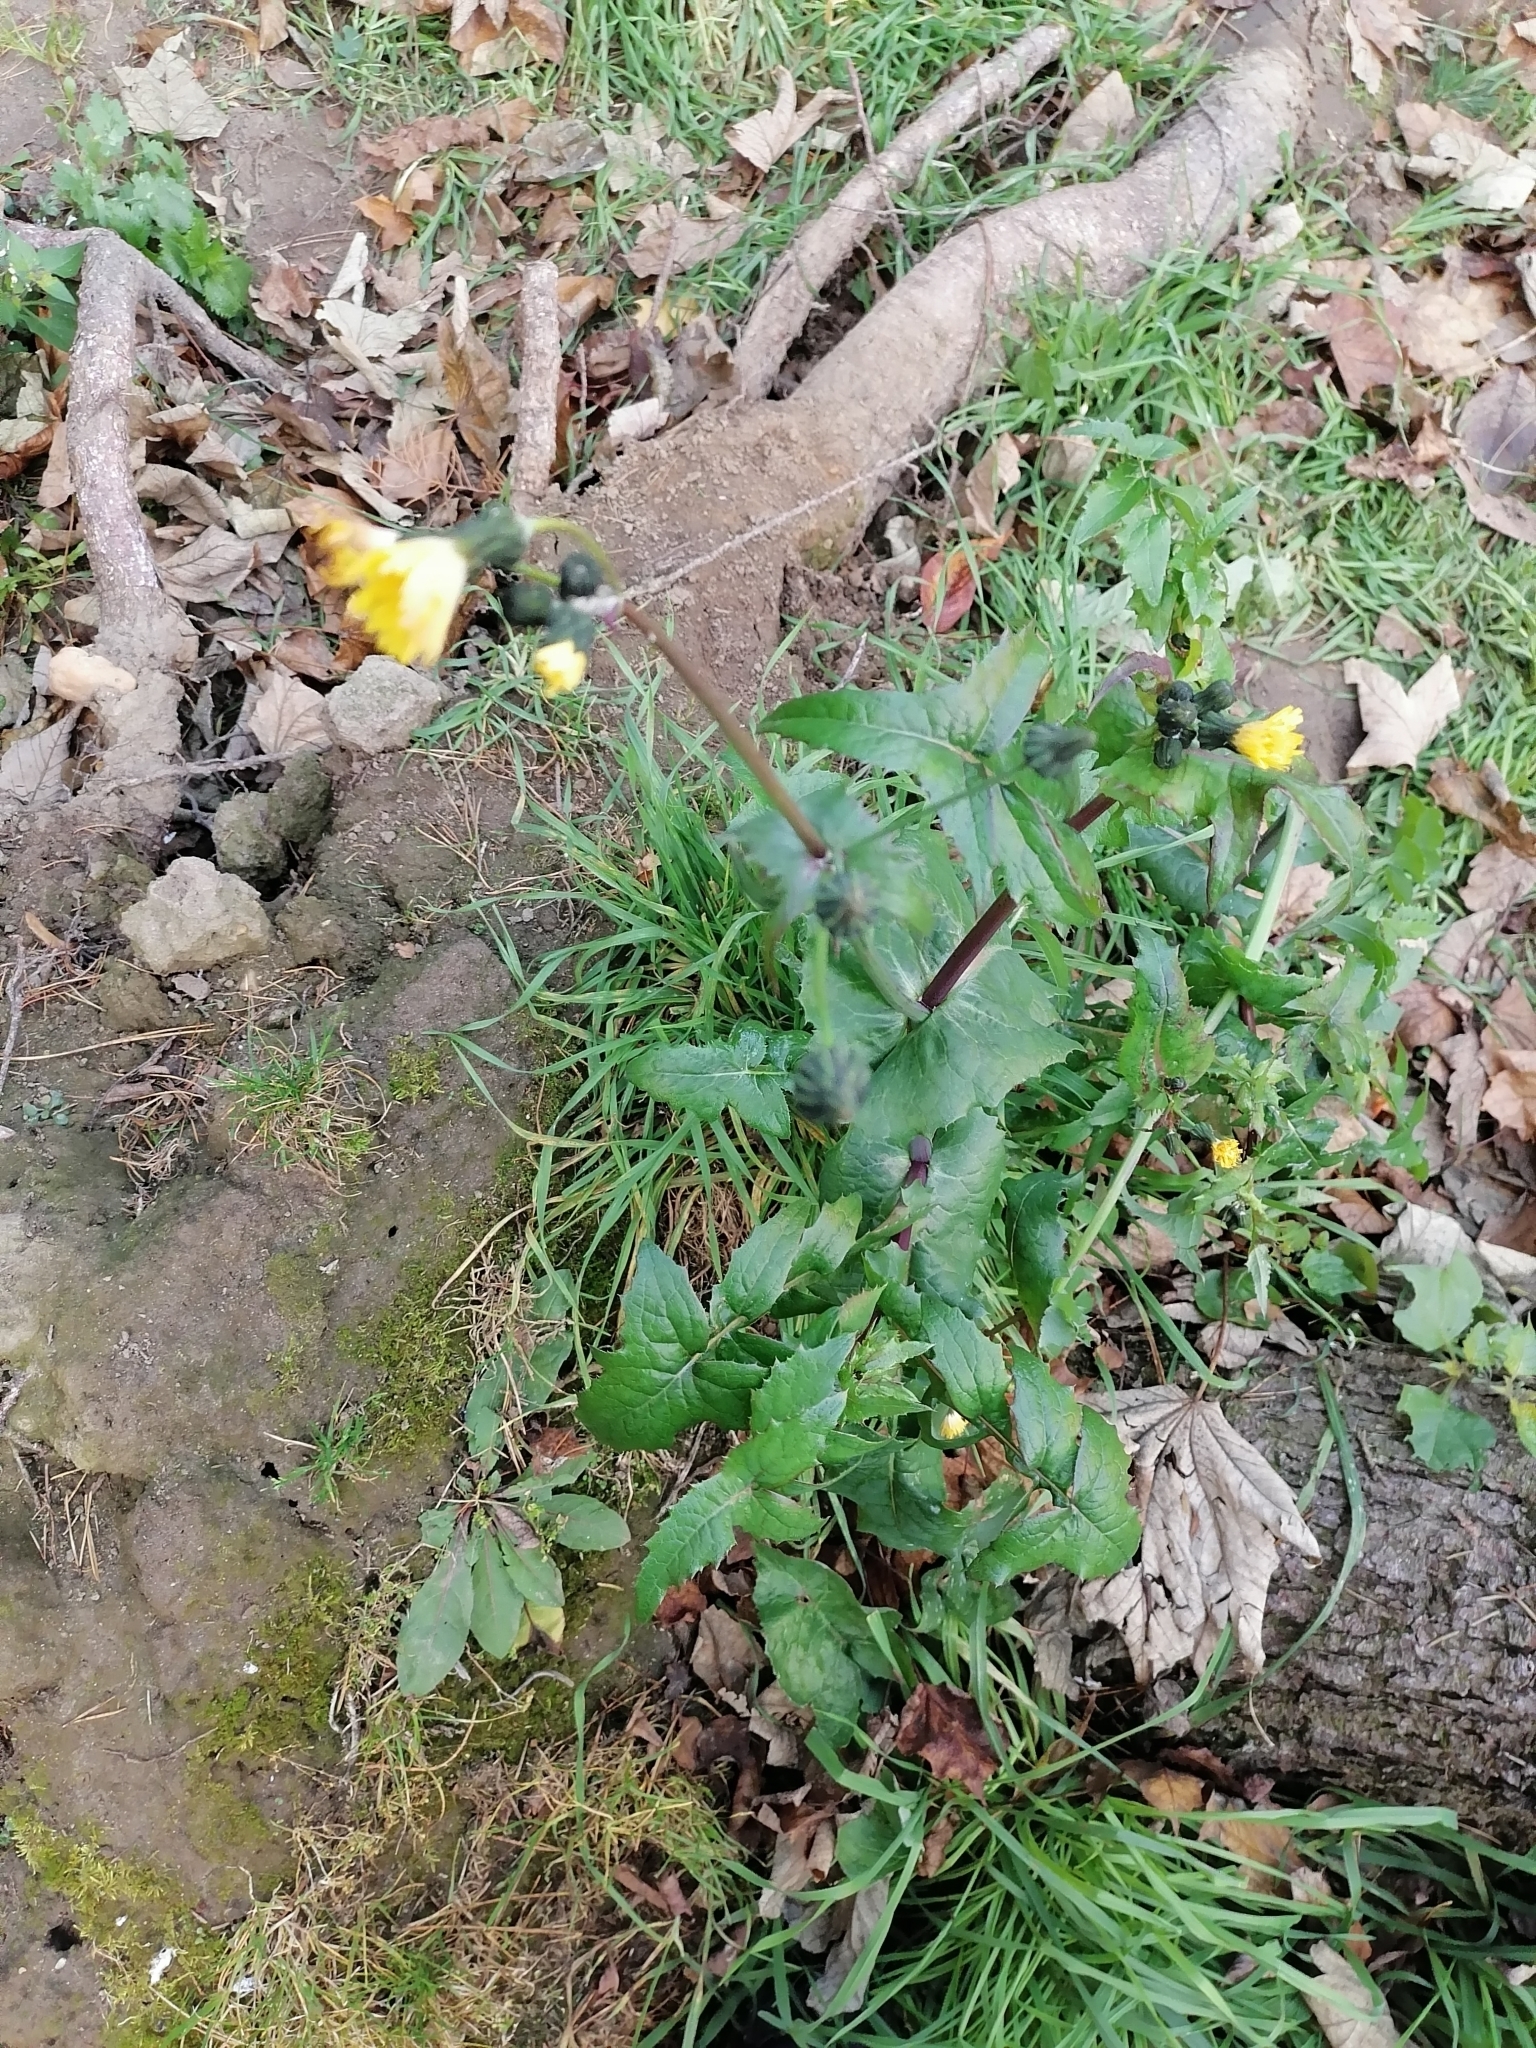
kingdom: Plantae
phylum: Tracheophyta
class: Magnoliopsida
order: Asterales
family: Asteraceae
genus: Sonchus
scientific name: Sonchus oleraceus
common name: Common sowthistle
